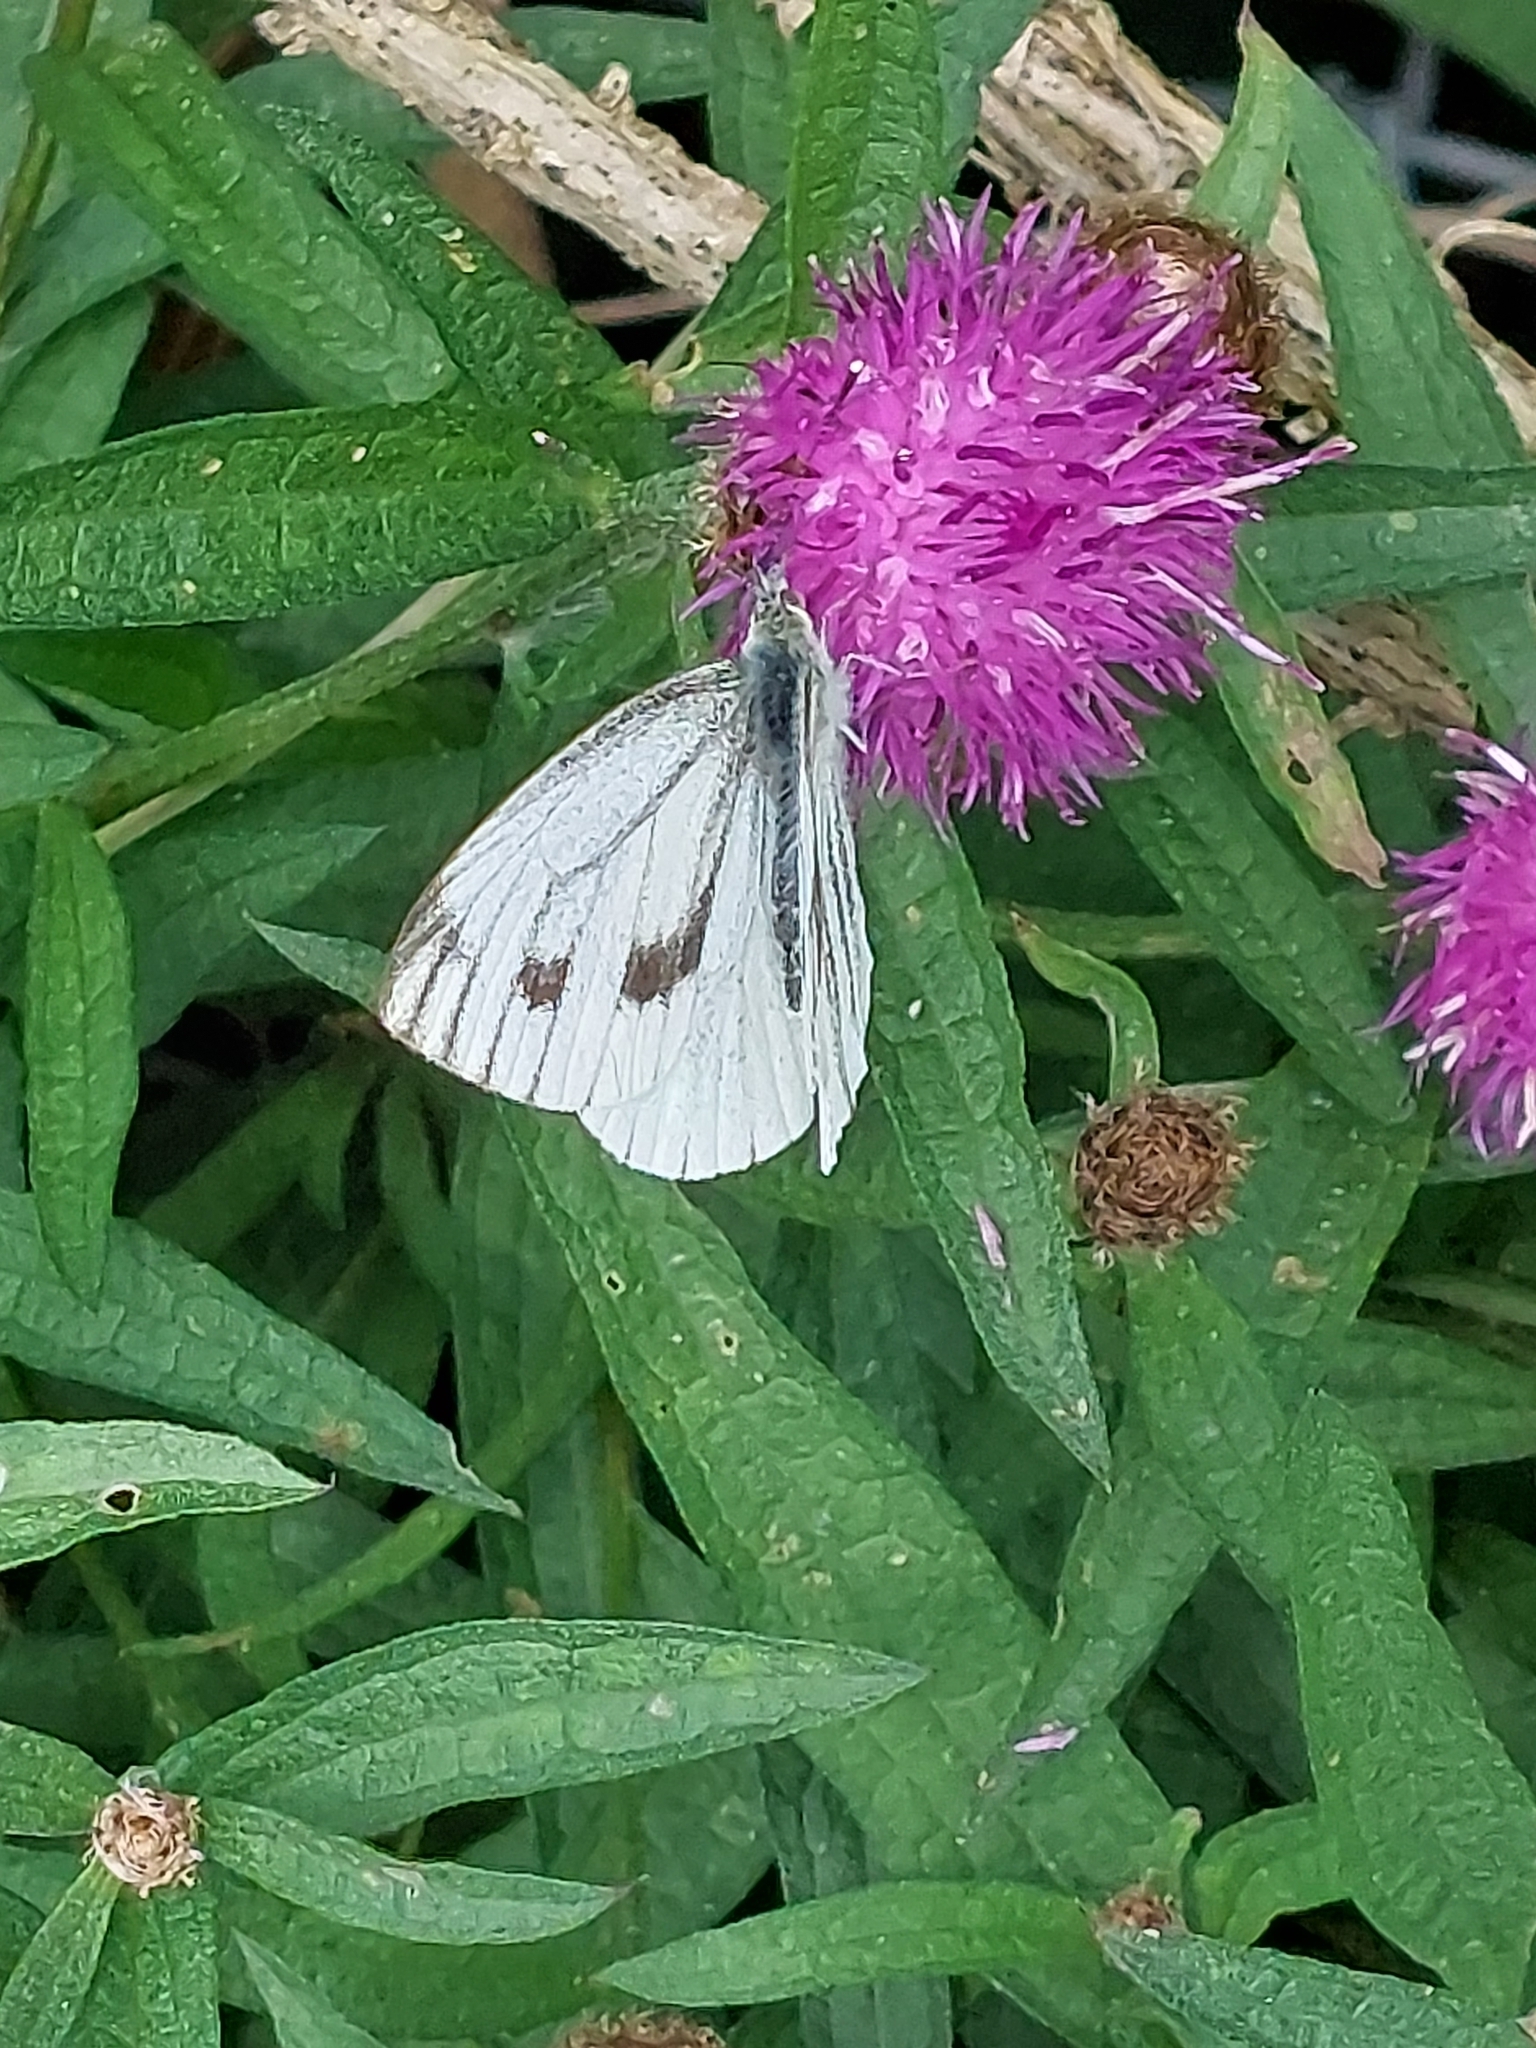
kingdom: Animalia
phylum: Arthropoda
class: Insecta
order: Lepidoptera
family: Pieridae
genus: Pieris
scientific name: Pieris napi
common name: Green-veined white
